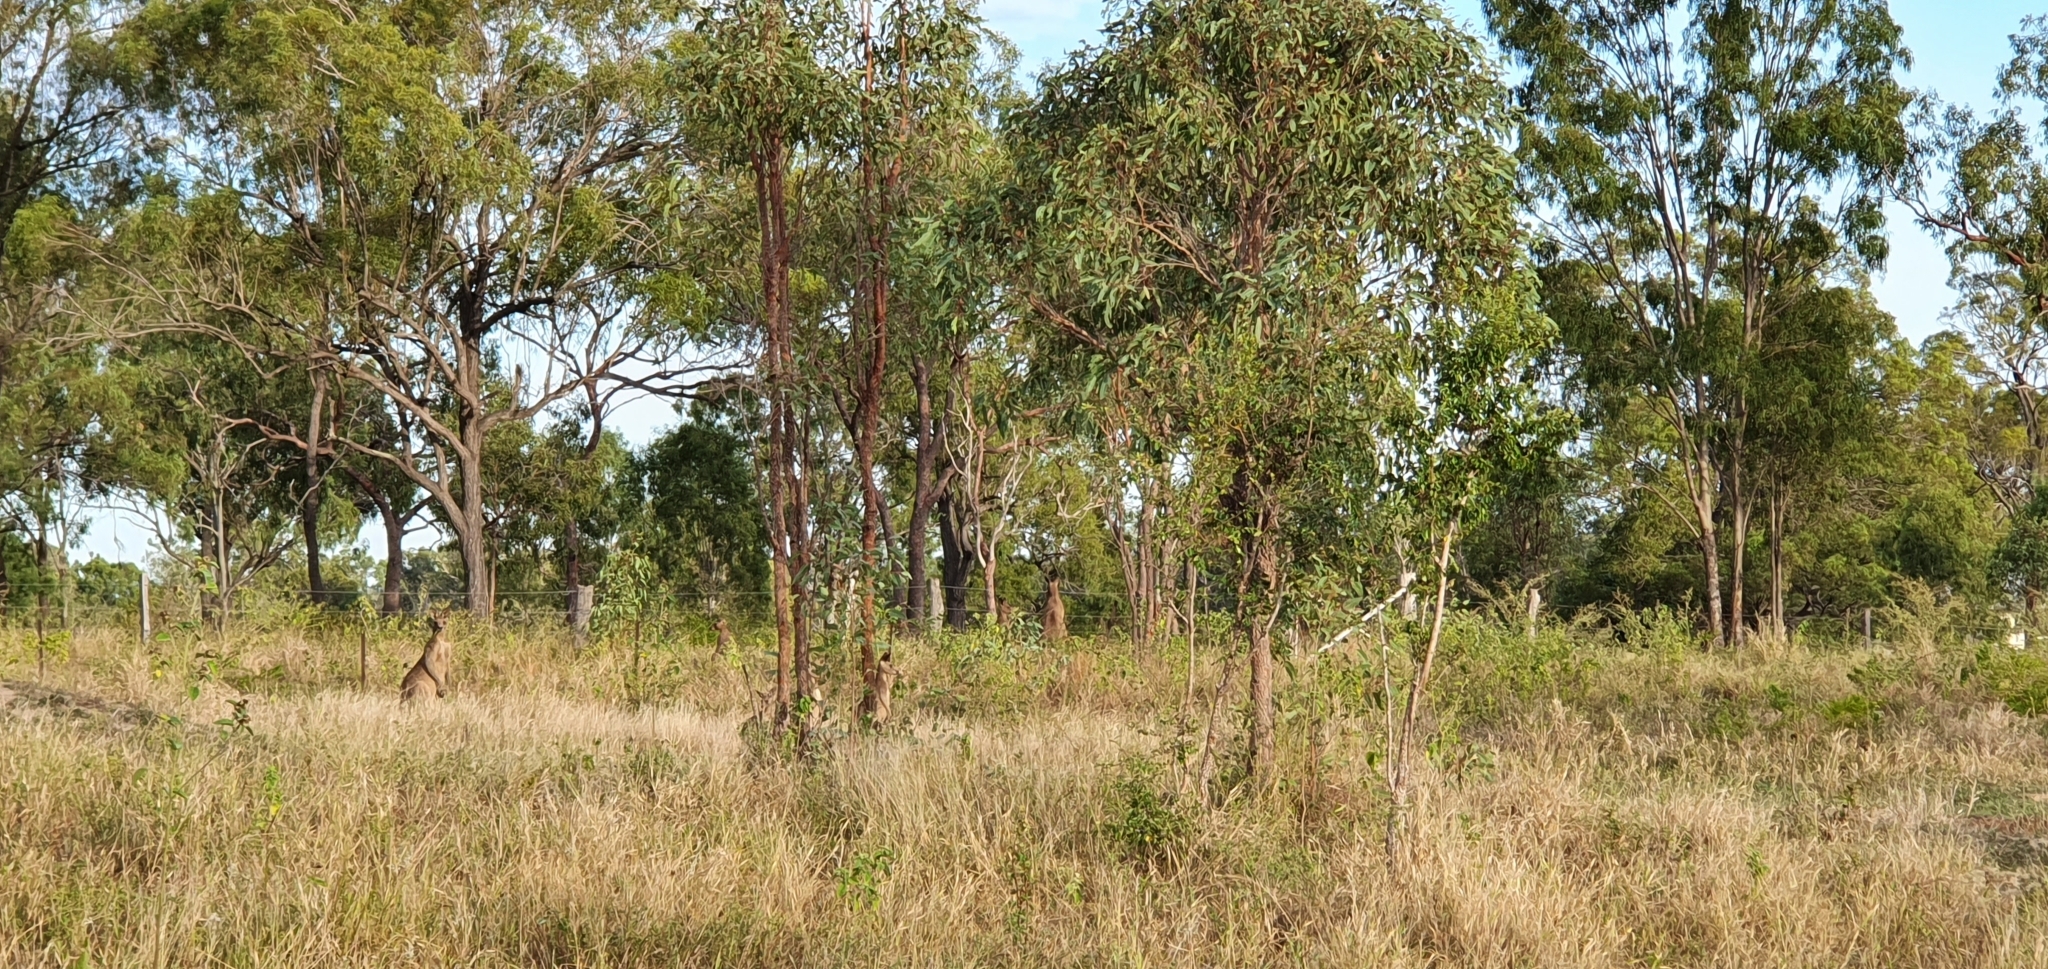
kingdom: Animalia
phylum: Chordata
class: Mammalia
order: Diprotodontia
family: Macropodidae
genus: Macropus
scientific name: Macropus giganteus
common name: Eastern grey kangaroo
